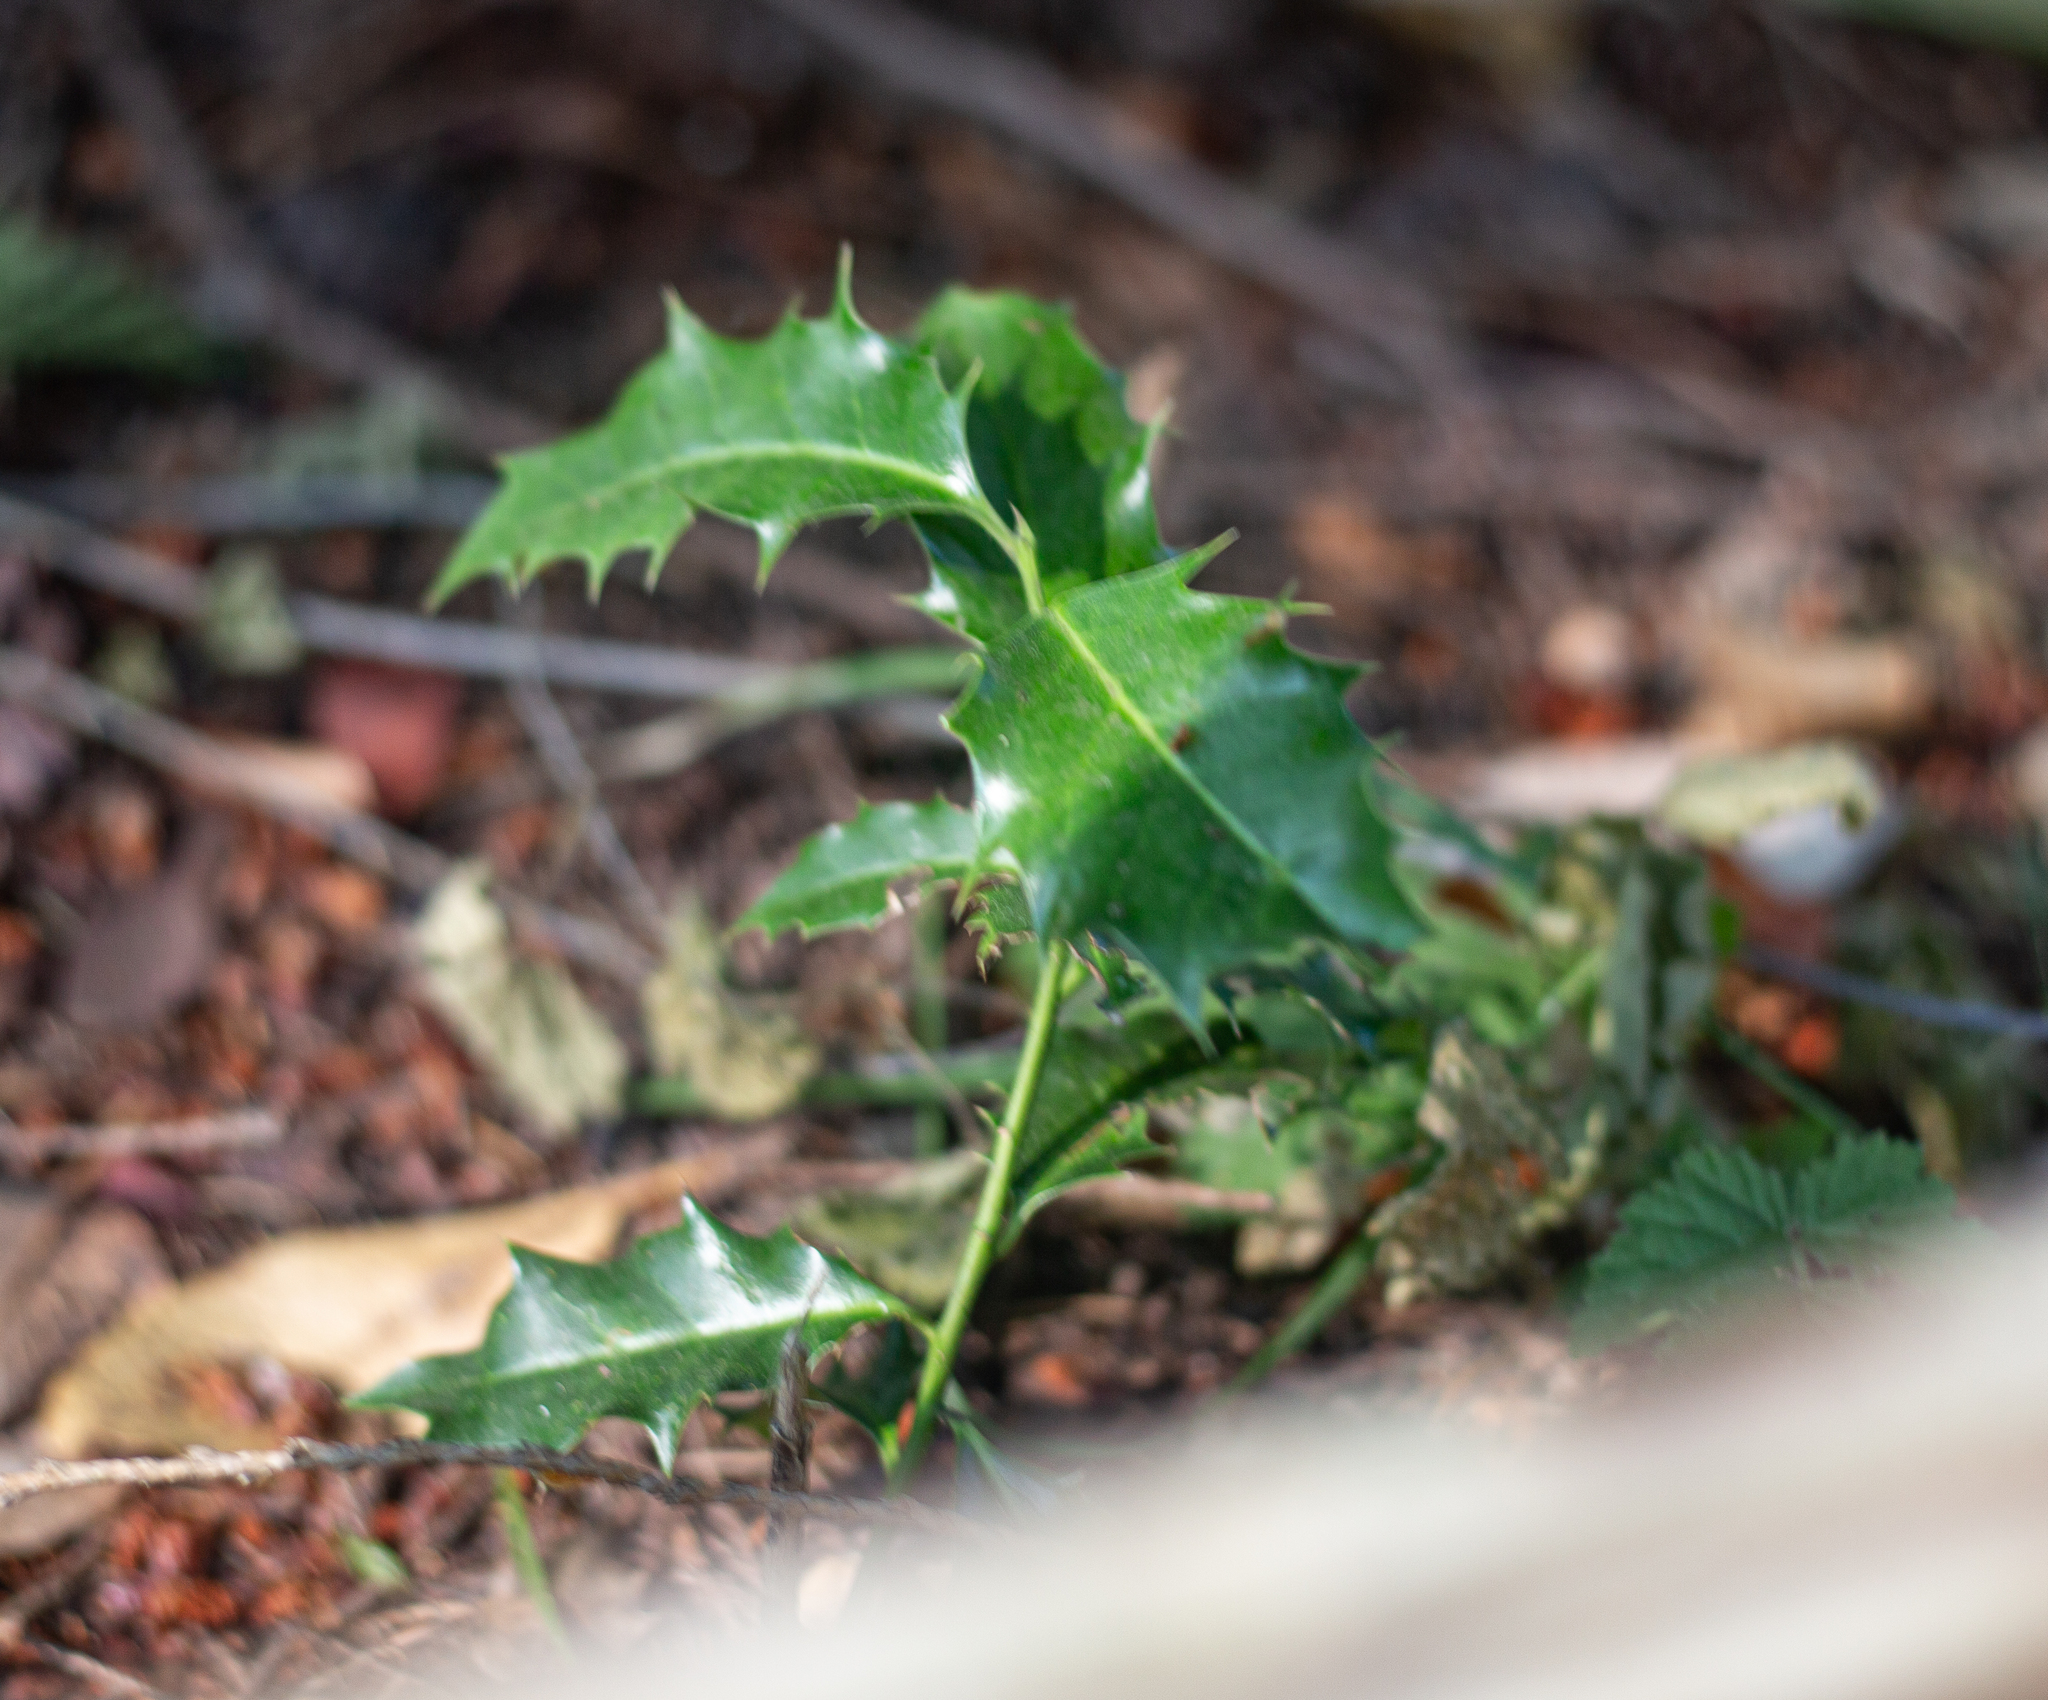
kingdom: Plantae
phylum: Tracheophyta
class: Magnoliopsida
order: Aquifoliales
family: Aquifoliaceae
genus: Ilex
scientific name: Ilex aquifolium
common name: English holly
